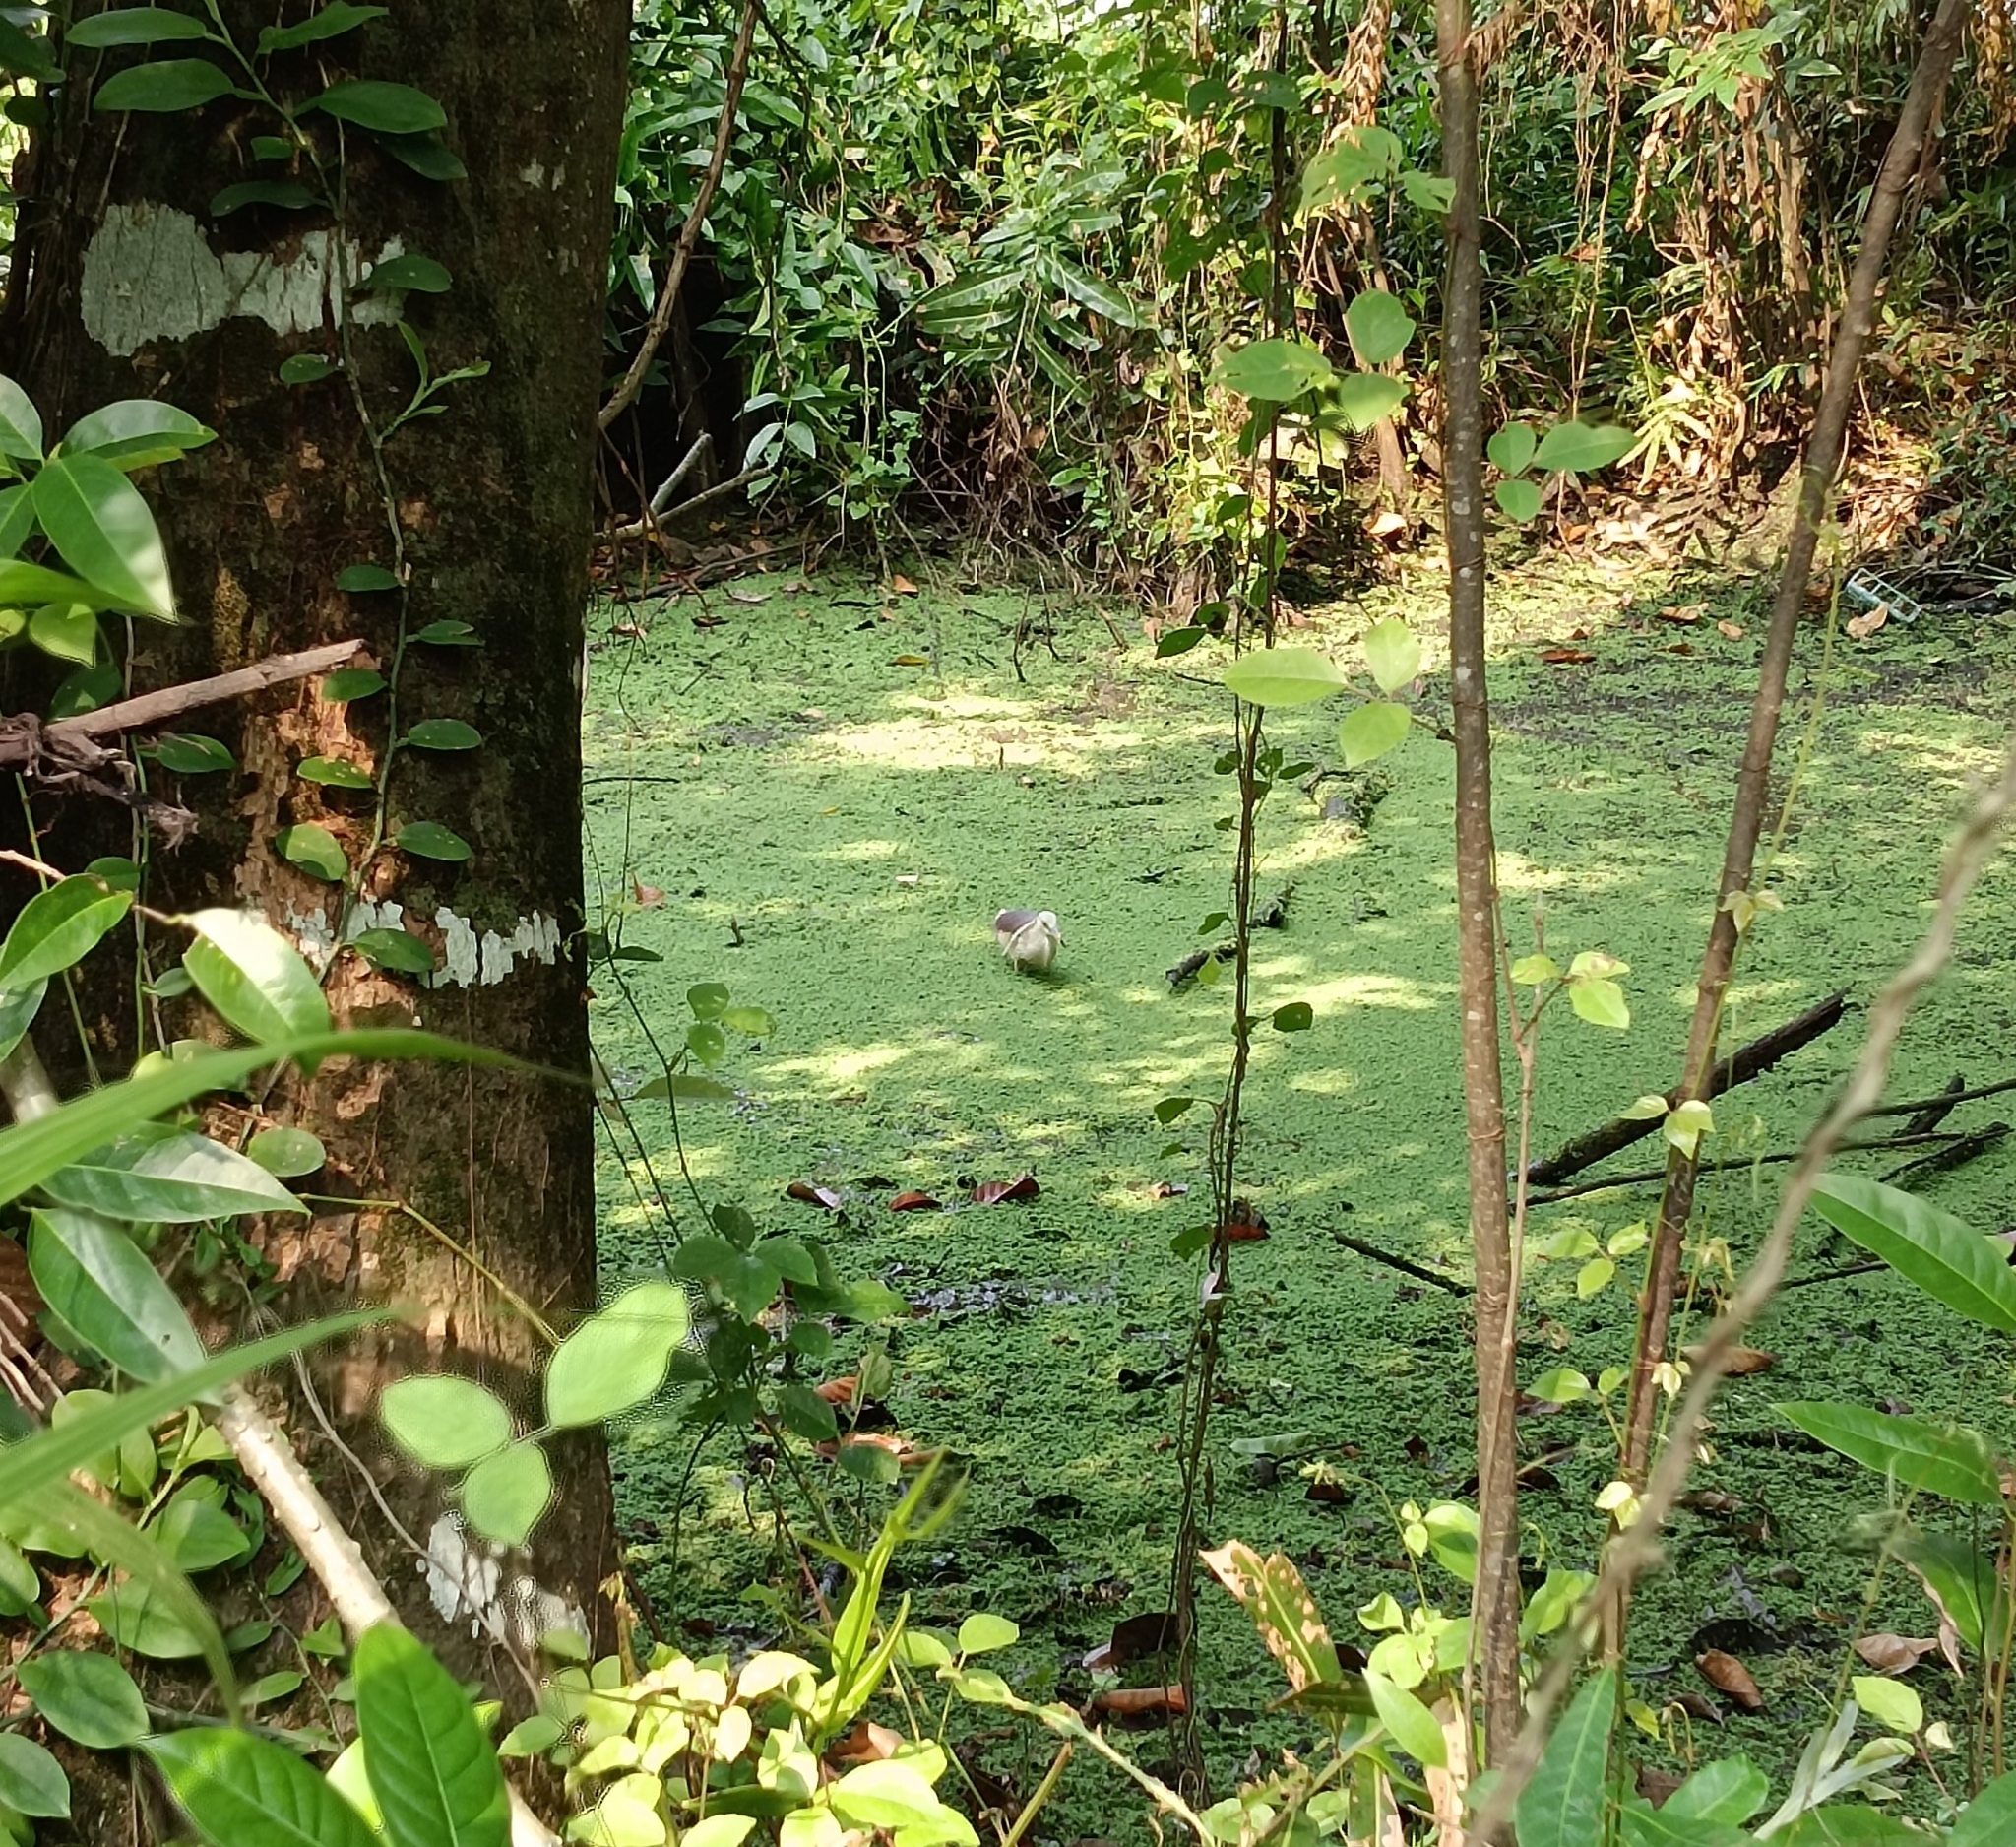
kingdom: Animalia
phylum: Chordata
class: Aves
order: Pelecaniformes
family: Ardeidae
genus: Ardeola
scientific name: Ardeola grayii
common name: Indian pond heron
